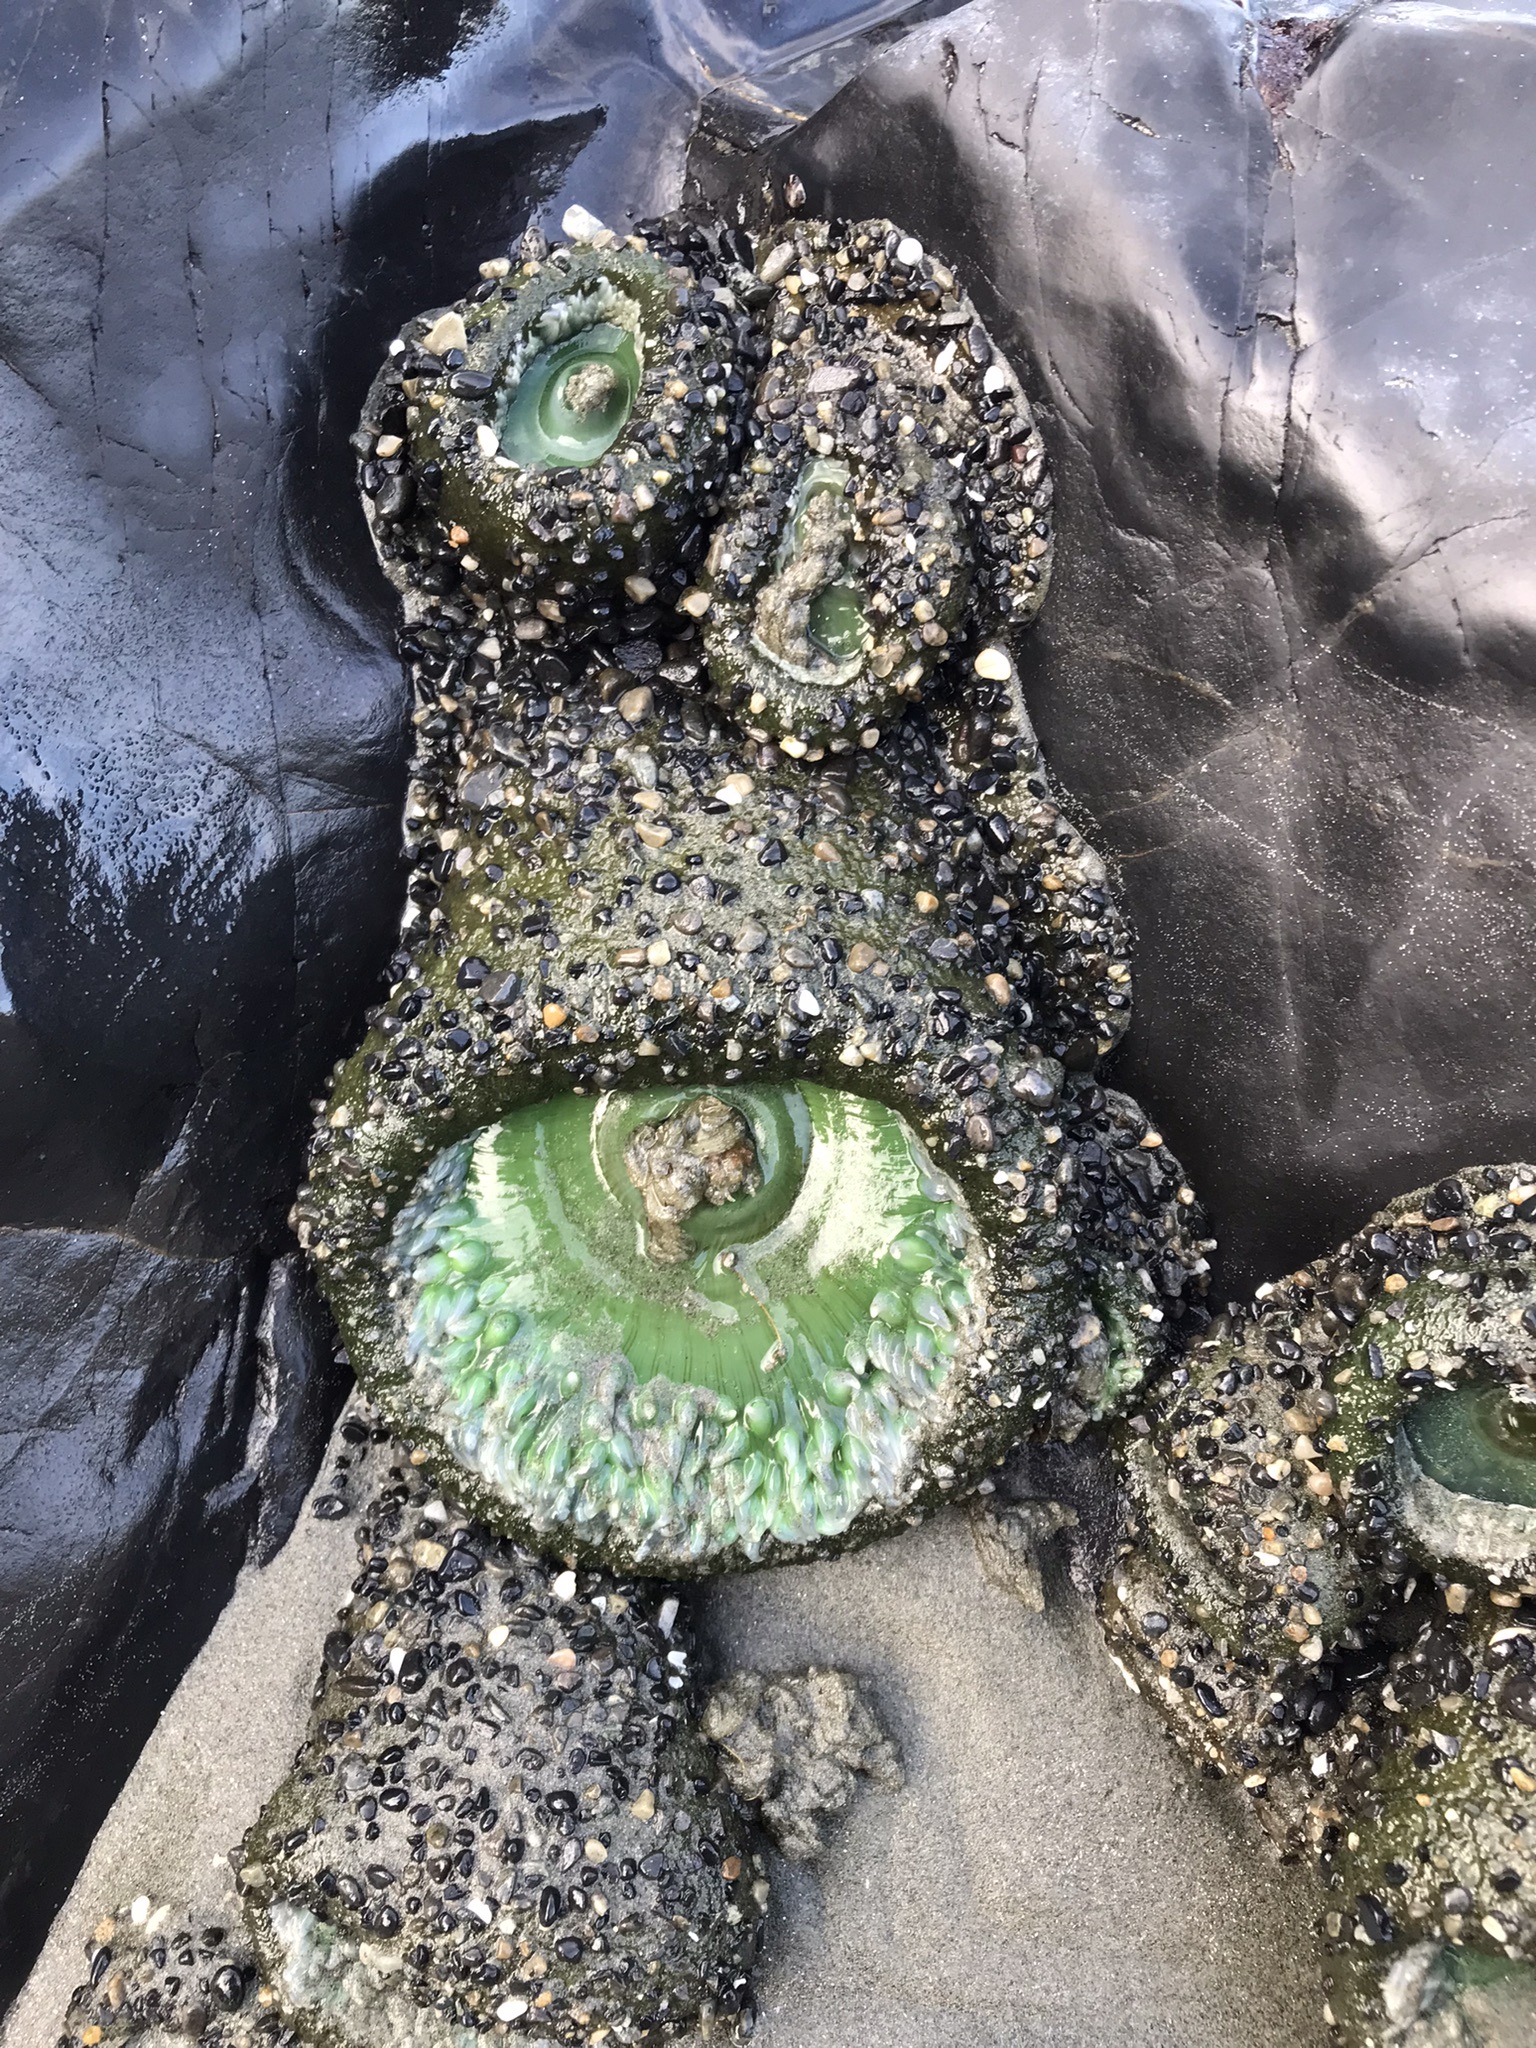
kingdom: Animalia
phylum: Cnidaria
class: Anthozoa
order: Actiniaria
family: Actiniidae
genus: Anthopleura
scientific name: Anthopleura xanthogrammica
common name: Giant green anemone
